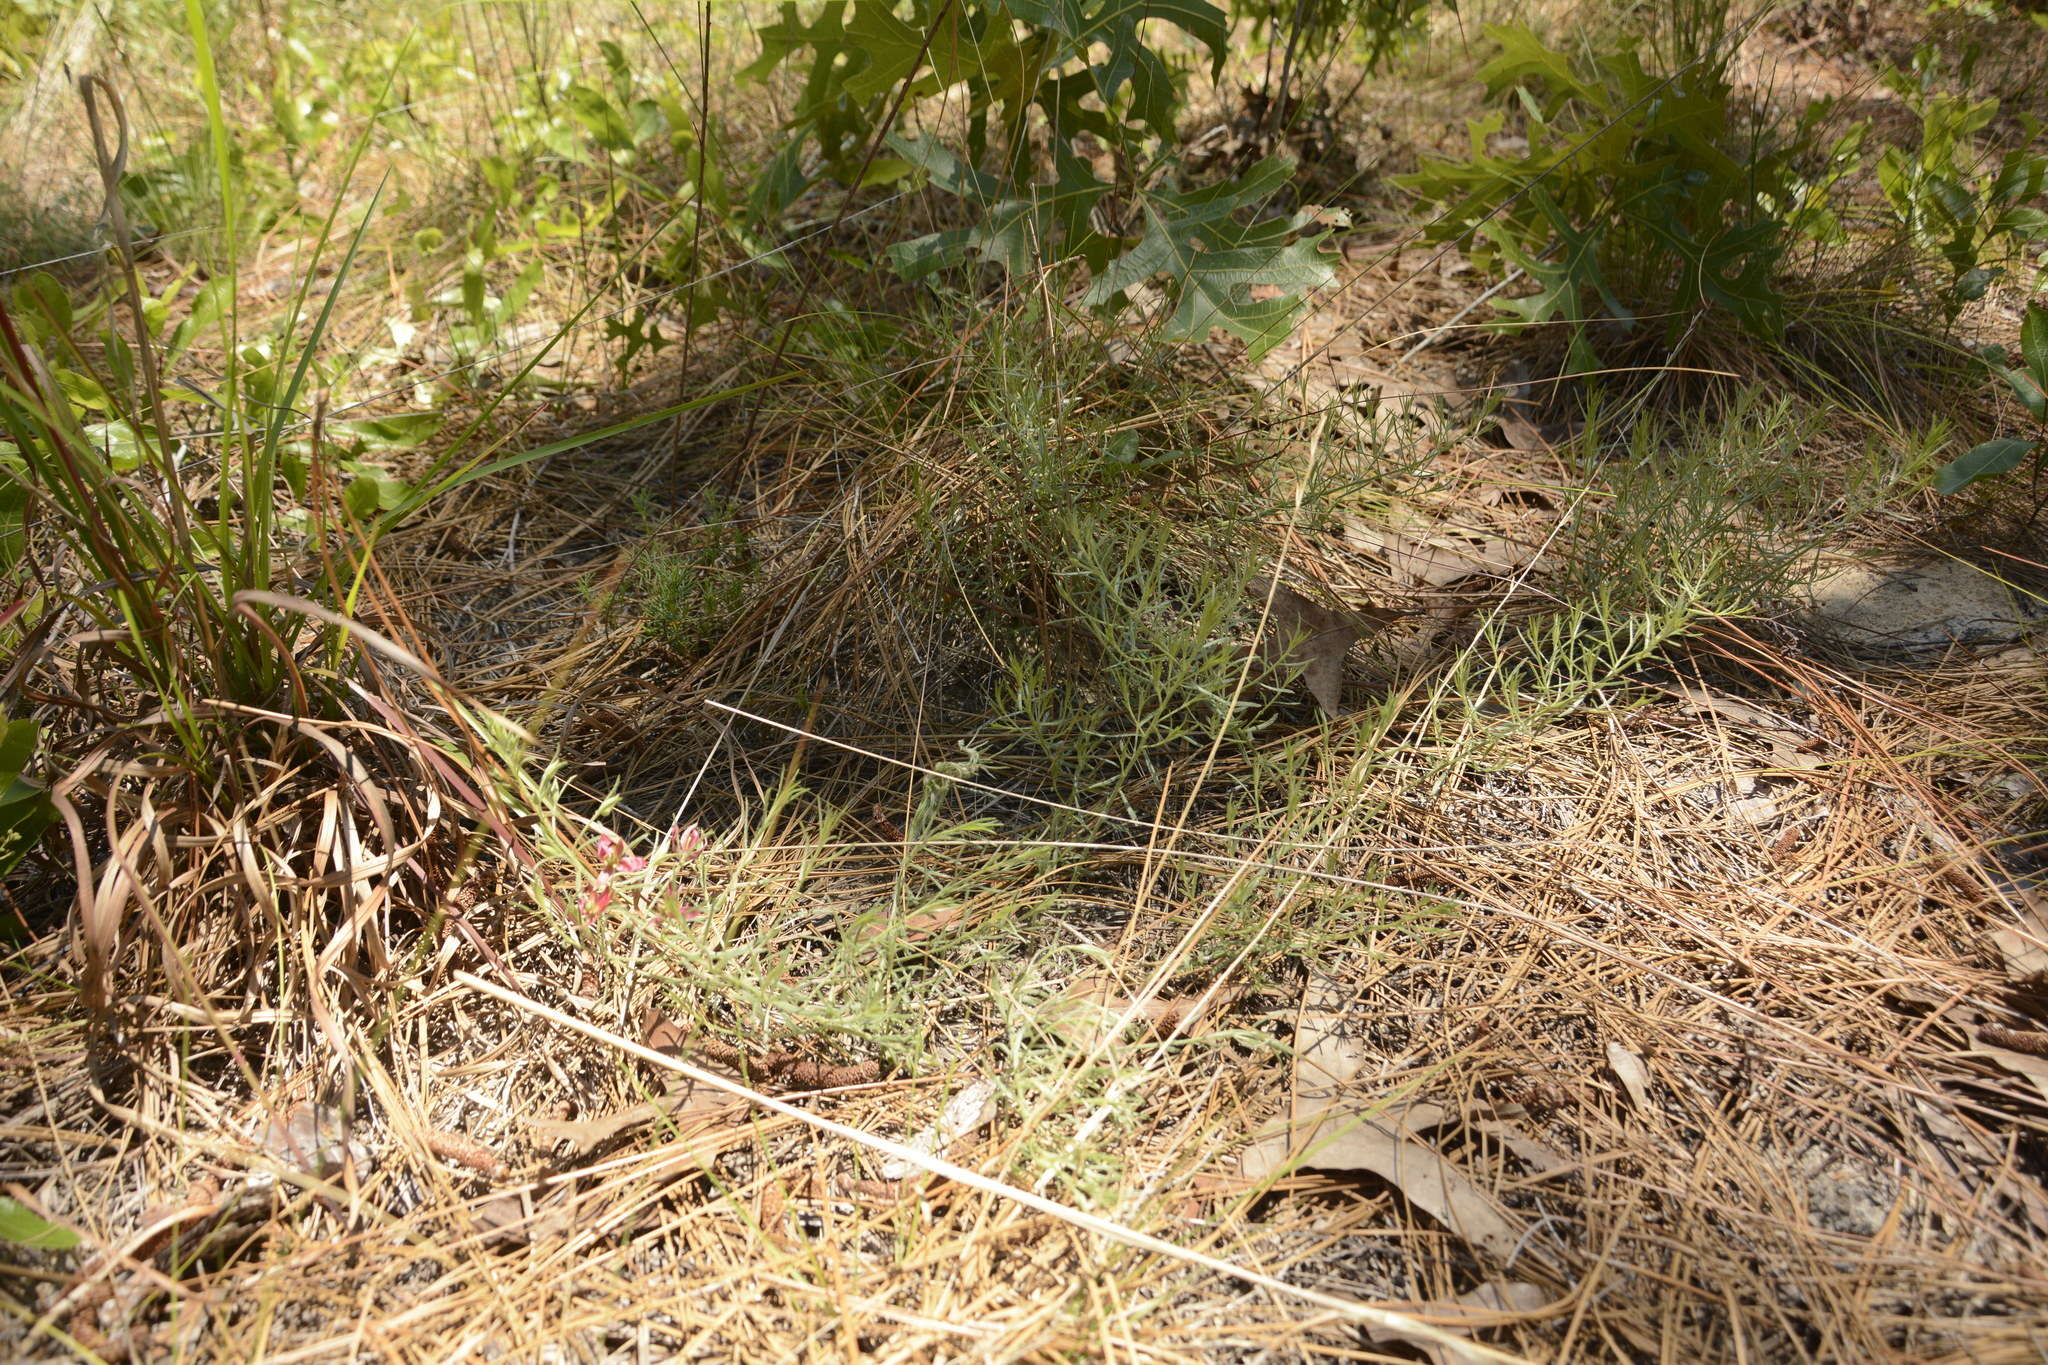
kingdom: Plantae
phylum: Tracheophyta
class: Magnoliopsida
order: Zygophyllales
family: Krameriaceae
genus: Krameria
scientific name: Krameria lanceolata
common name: Ratany
